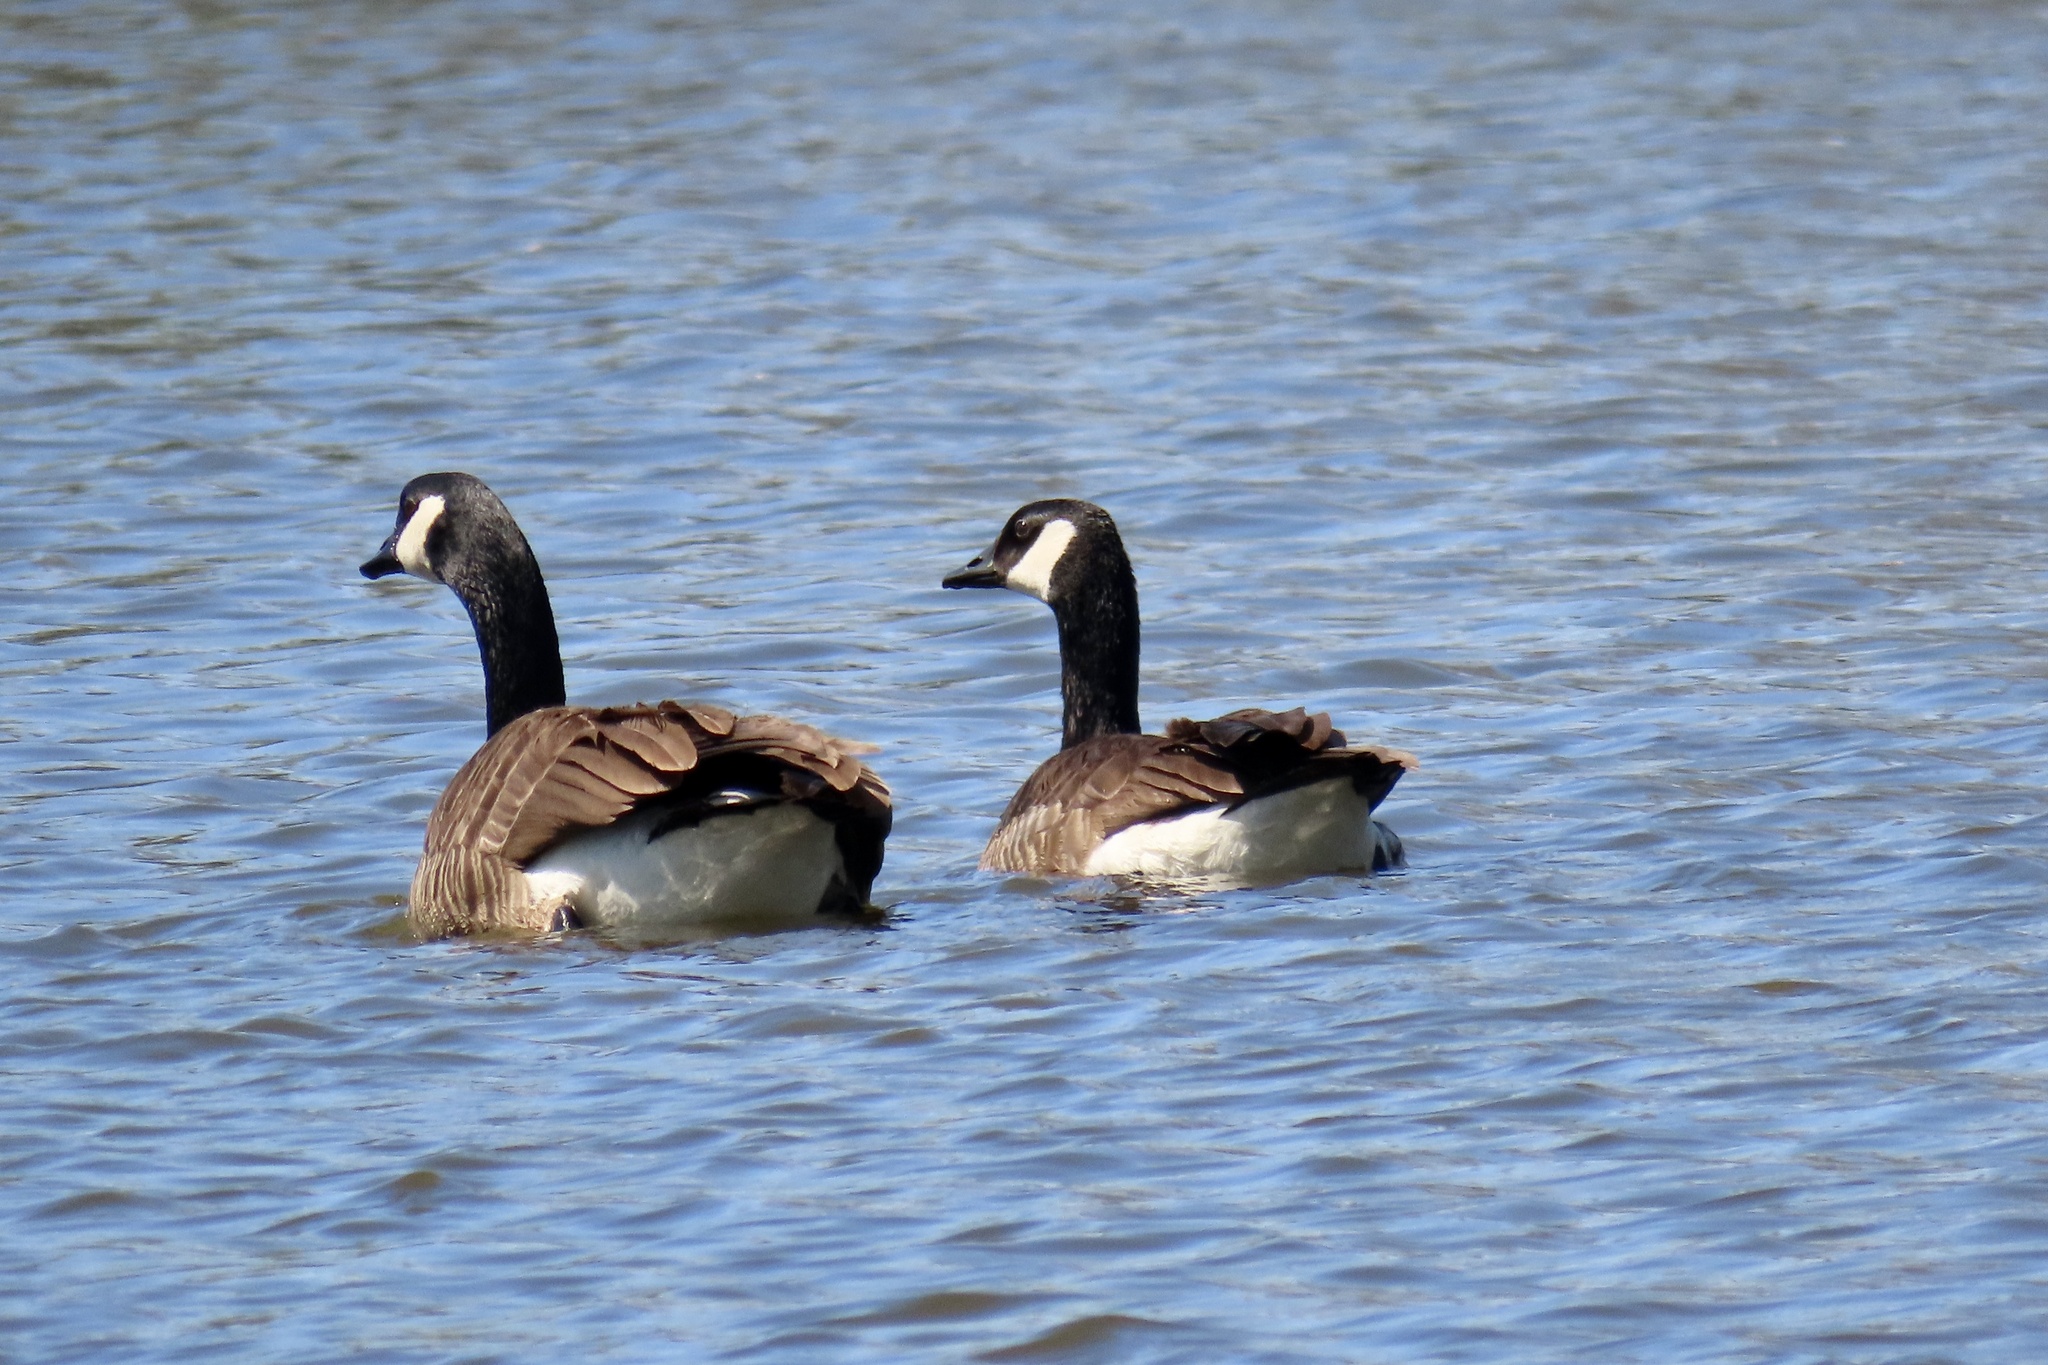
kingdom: Animalia
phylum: Chordata
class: Aves
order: Anseriformes
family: Anatidae
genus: Branta
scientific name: Branta canadensis
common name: Canada goose
